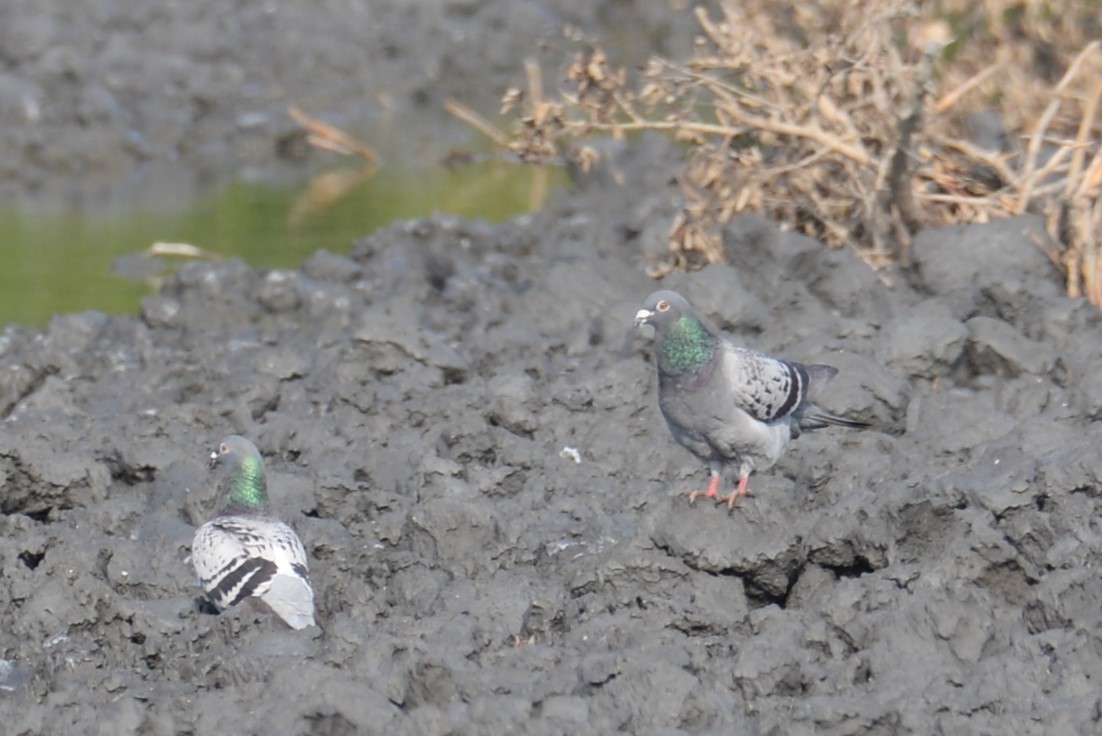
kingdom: Animalia
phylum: Chordata
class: Aves
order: Columbiformes
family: Columbidae
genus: Columba
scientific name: Columba livia
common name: Rock pigeon
